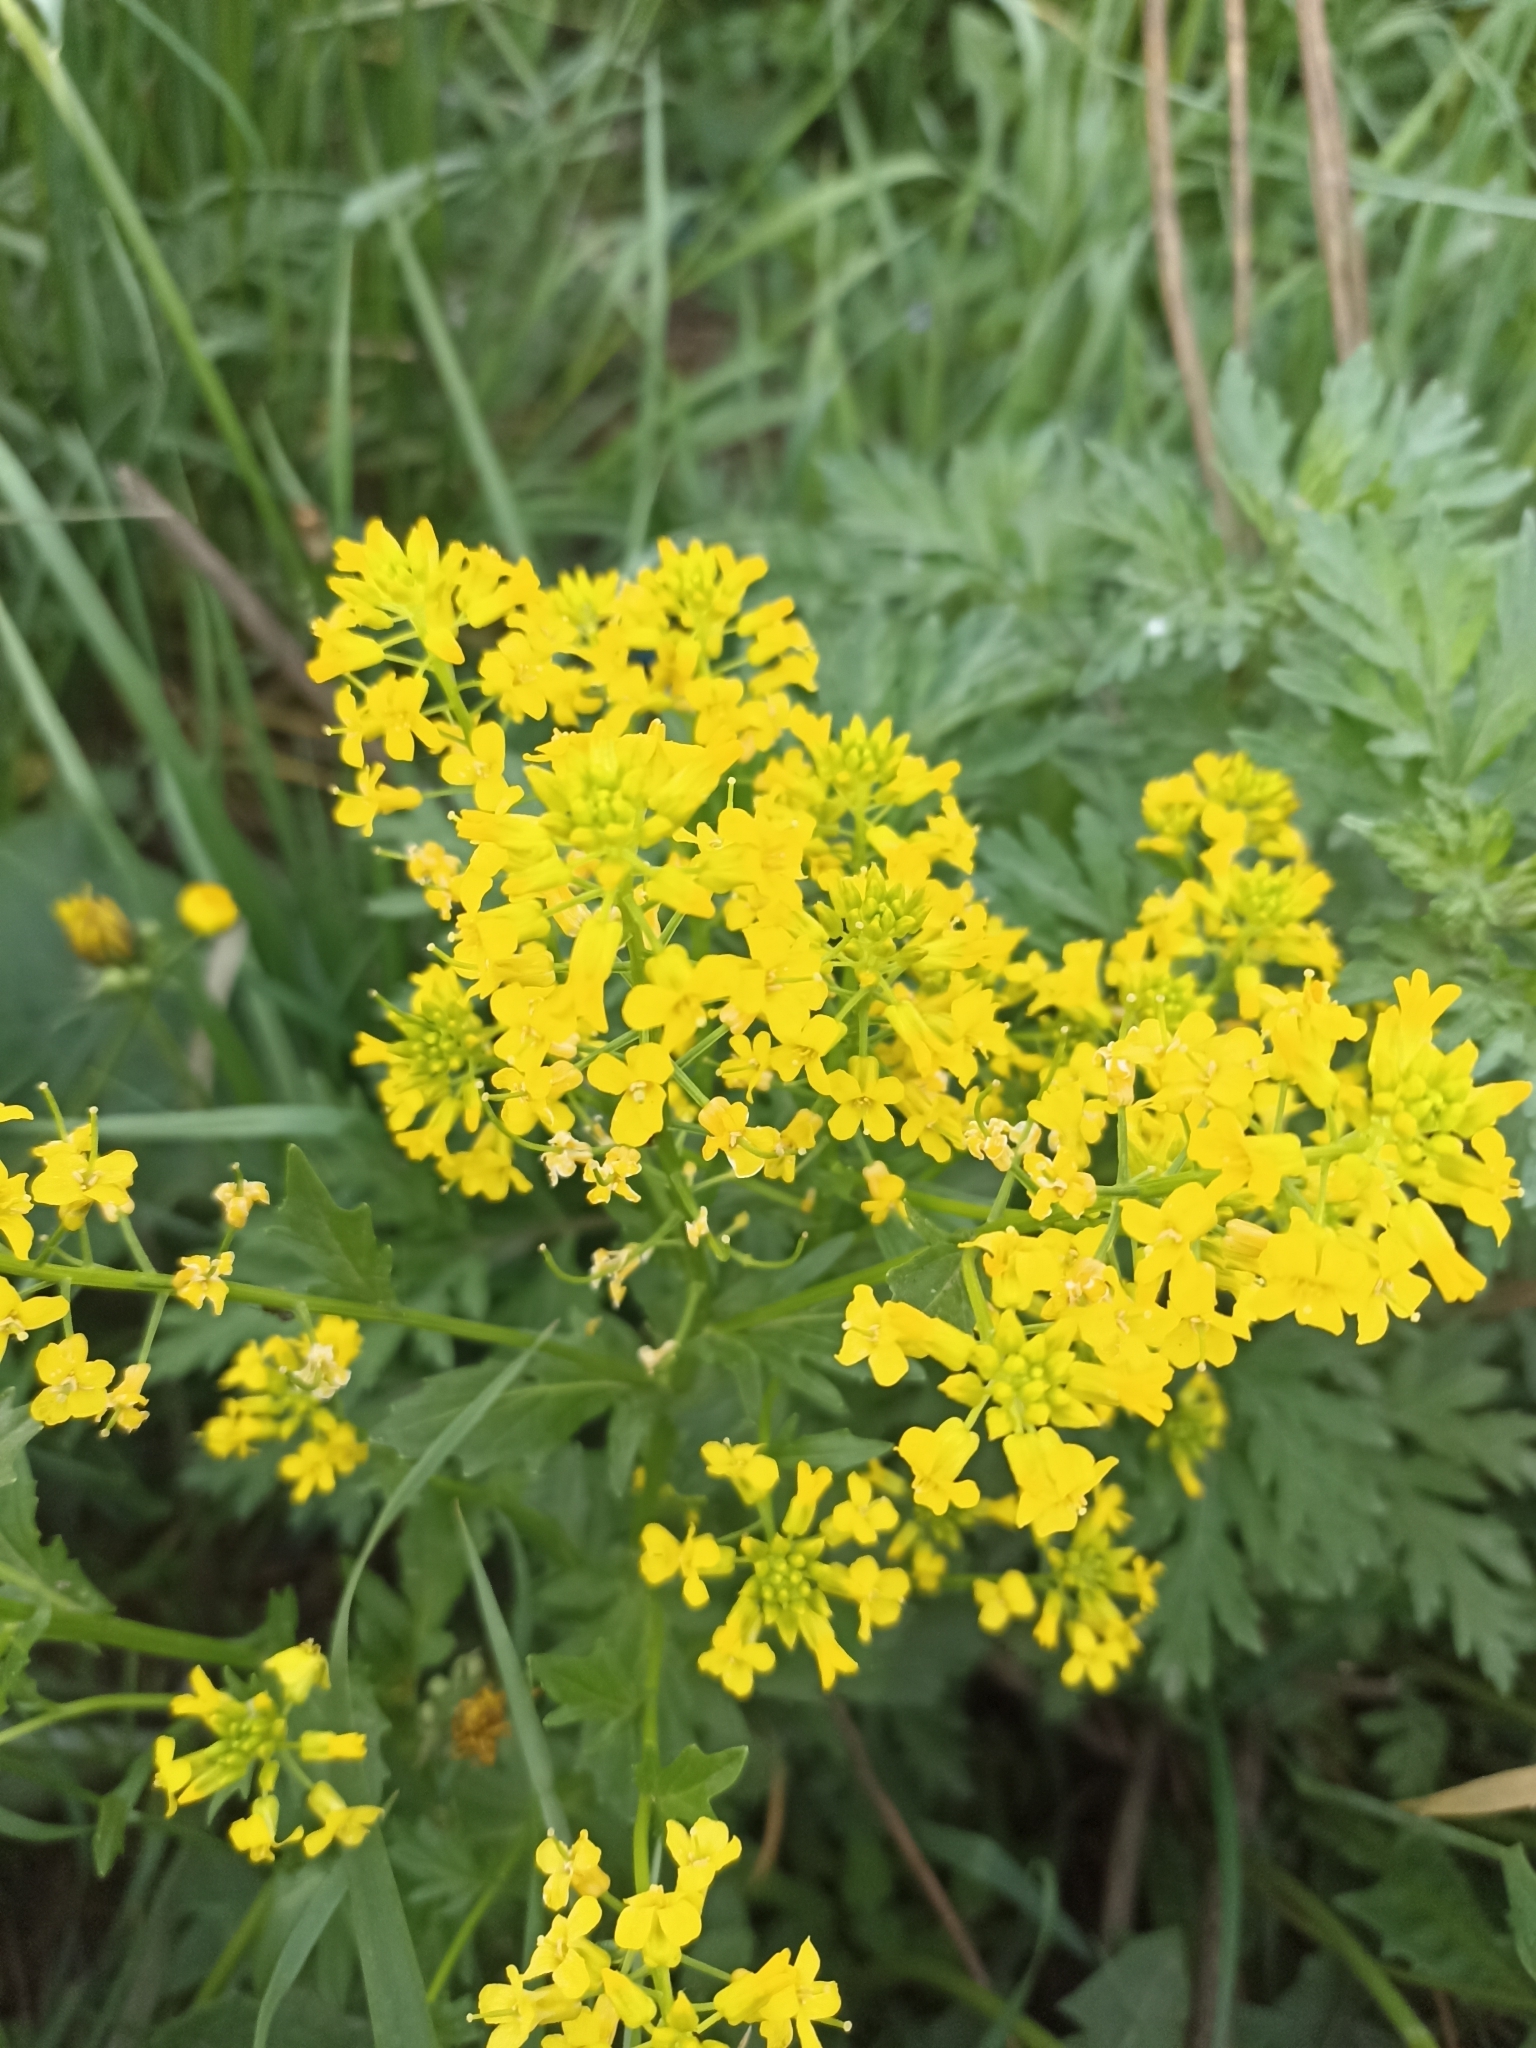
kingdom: Plantae
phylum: Tracheophyta
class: Magnoliopsida
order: Brassicales
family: Brassicaceae
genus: Barbarea
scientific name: Barbarea vulgaris
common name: Cressy-greens
